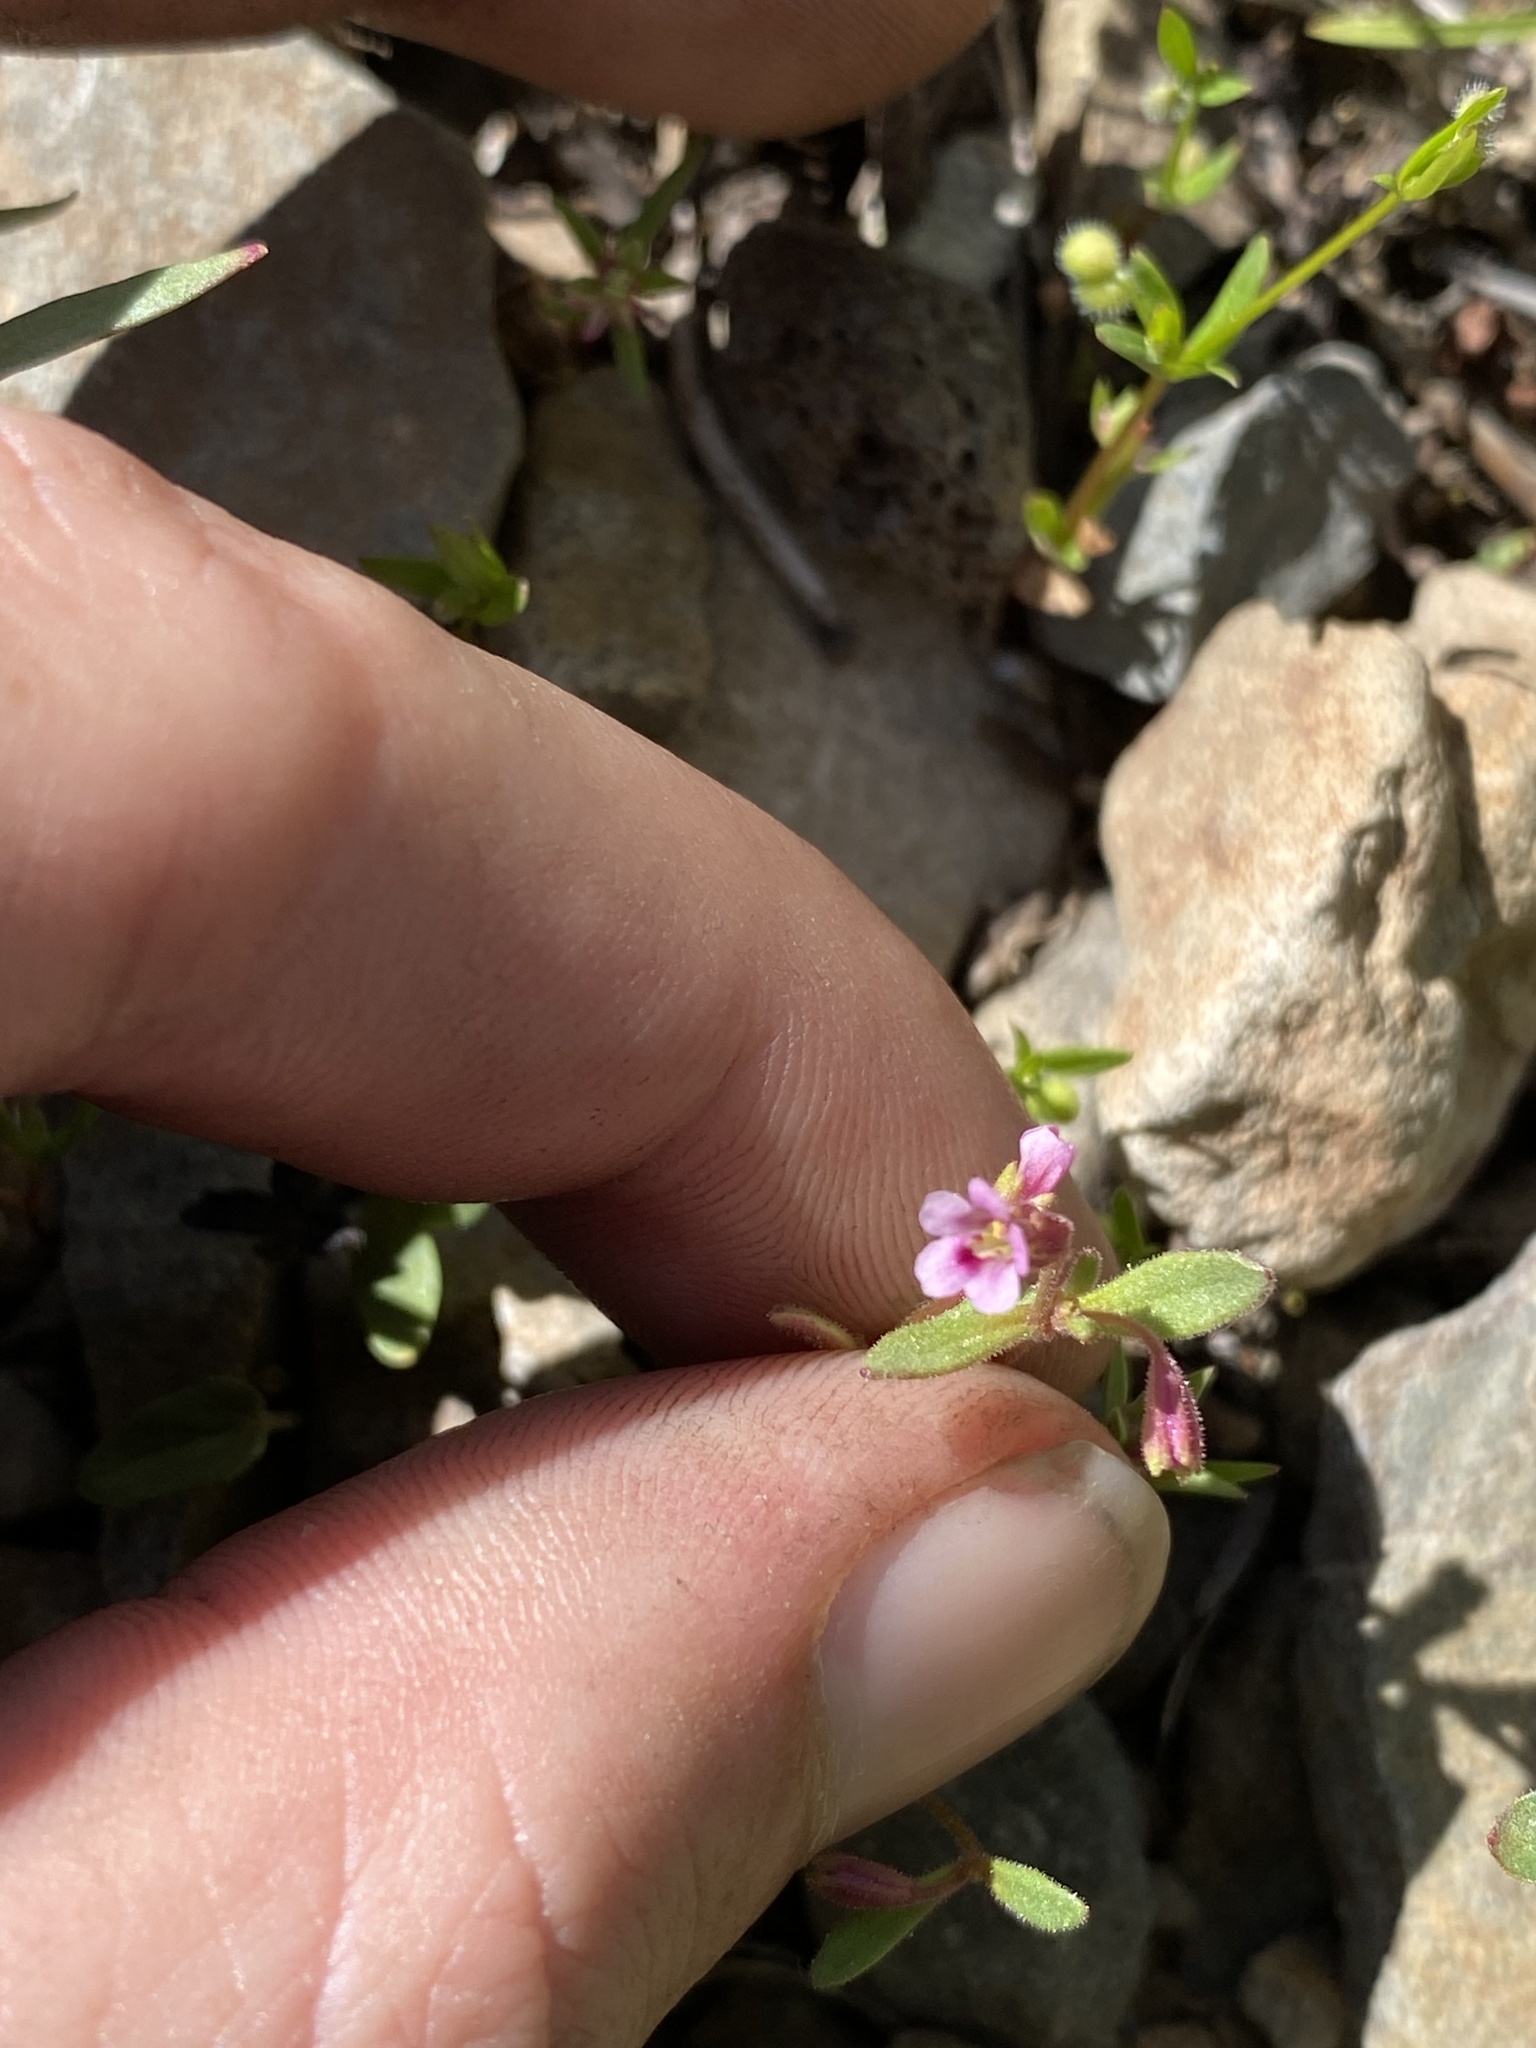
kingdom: Plantae
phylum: Tracheophyta
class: Magnoliopsida
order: Lamiales
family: Phrymaceae
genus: Erythranthe
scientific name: Erythranthe breweri
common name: Brewer's monkeyflower
